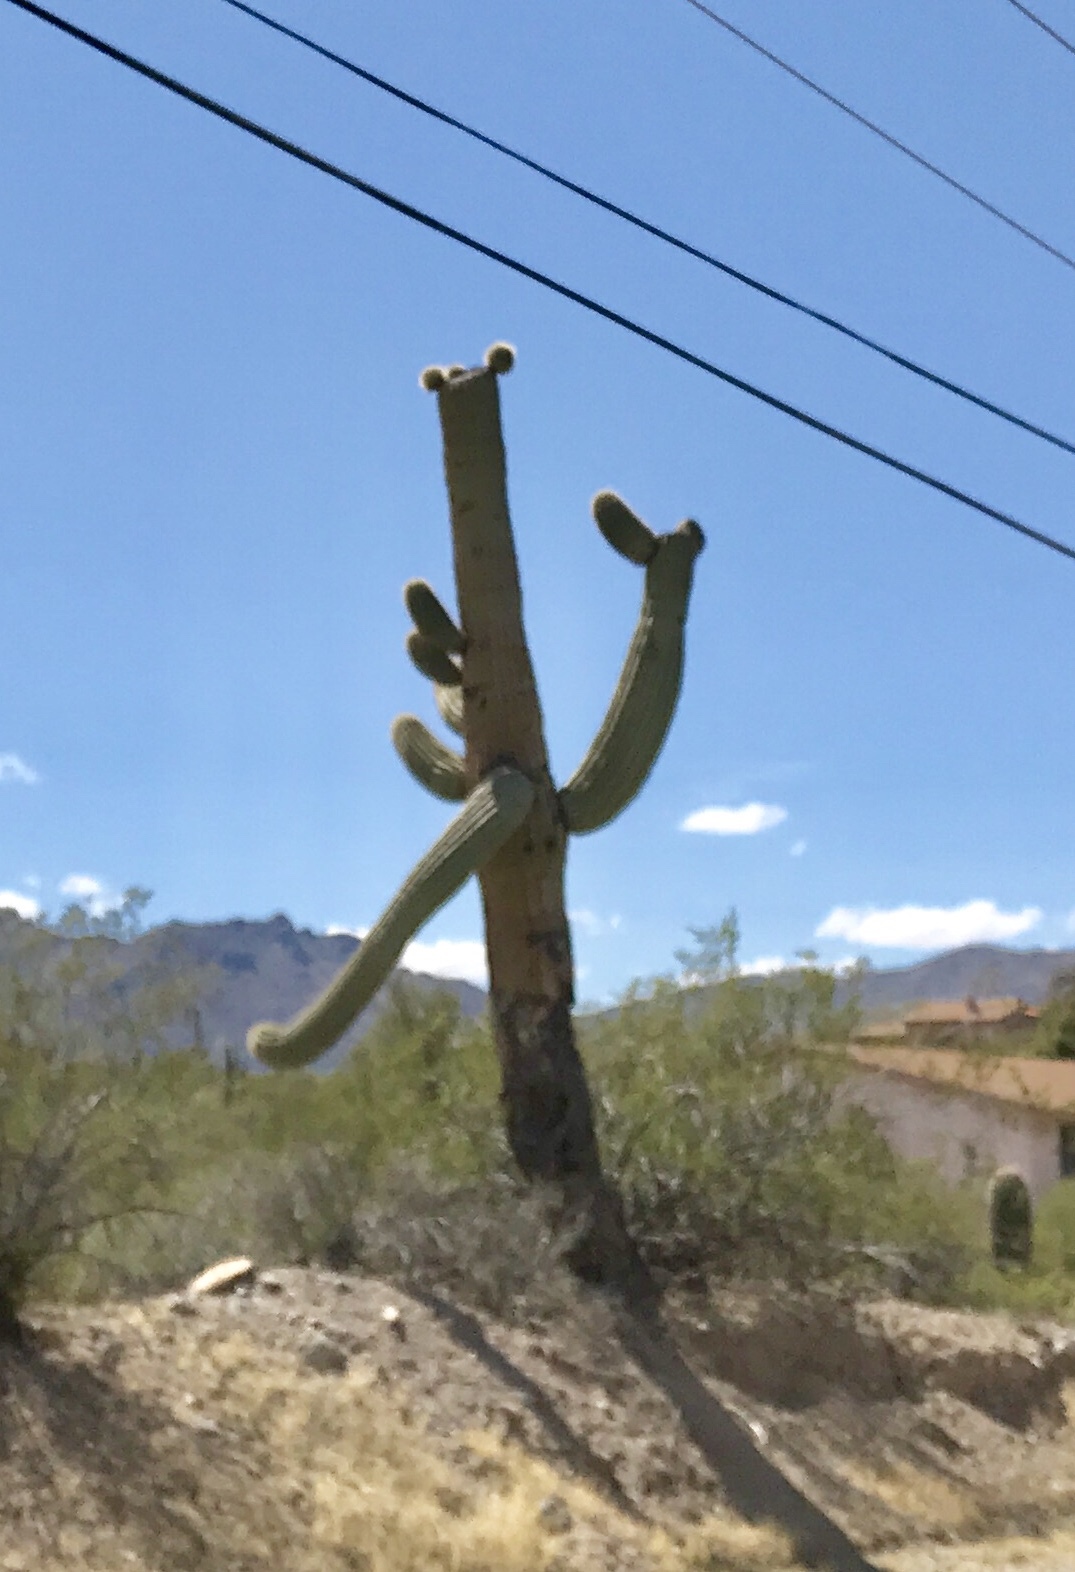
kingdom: Plantae
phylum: Tracheophyta
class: Magnoliopsida
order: Caryophyllales
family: Cactaceae
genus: Carnegiea
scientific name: Carnegiea gigantea
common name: Saguaro
